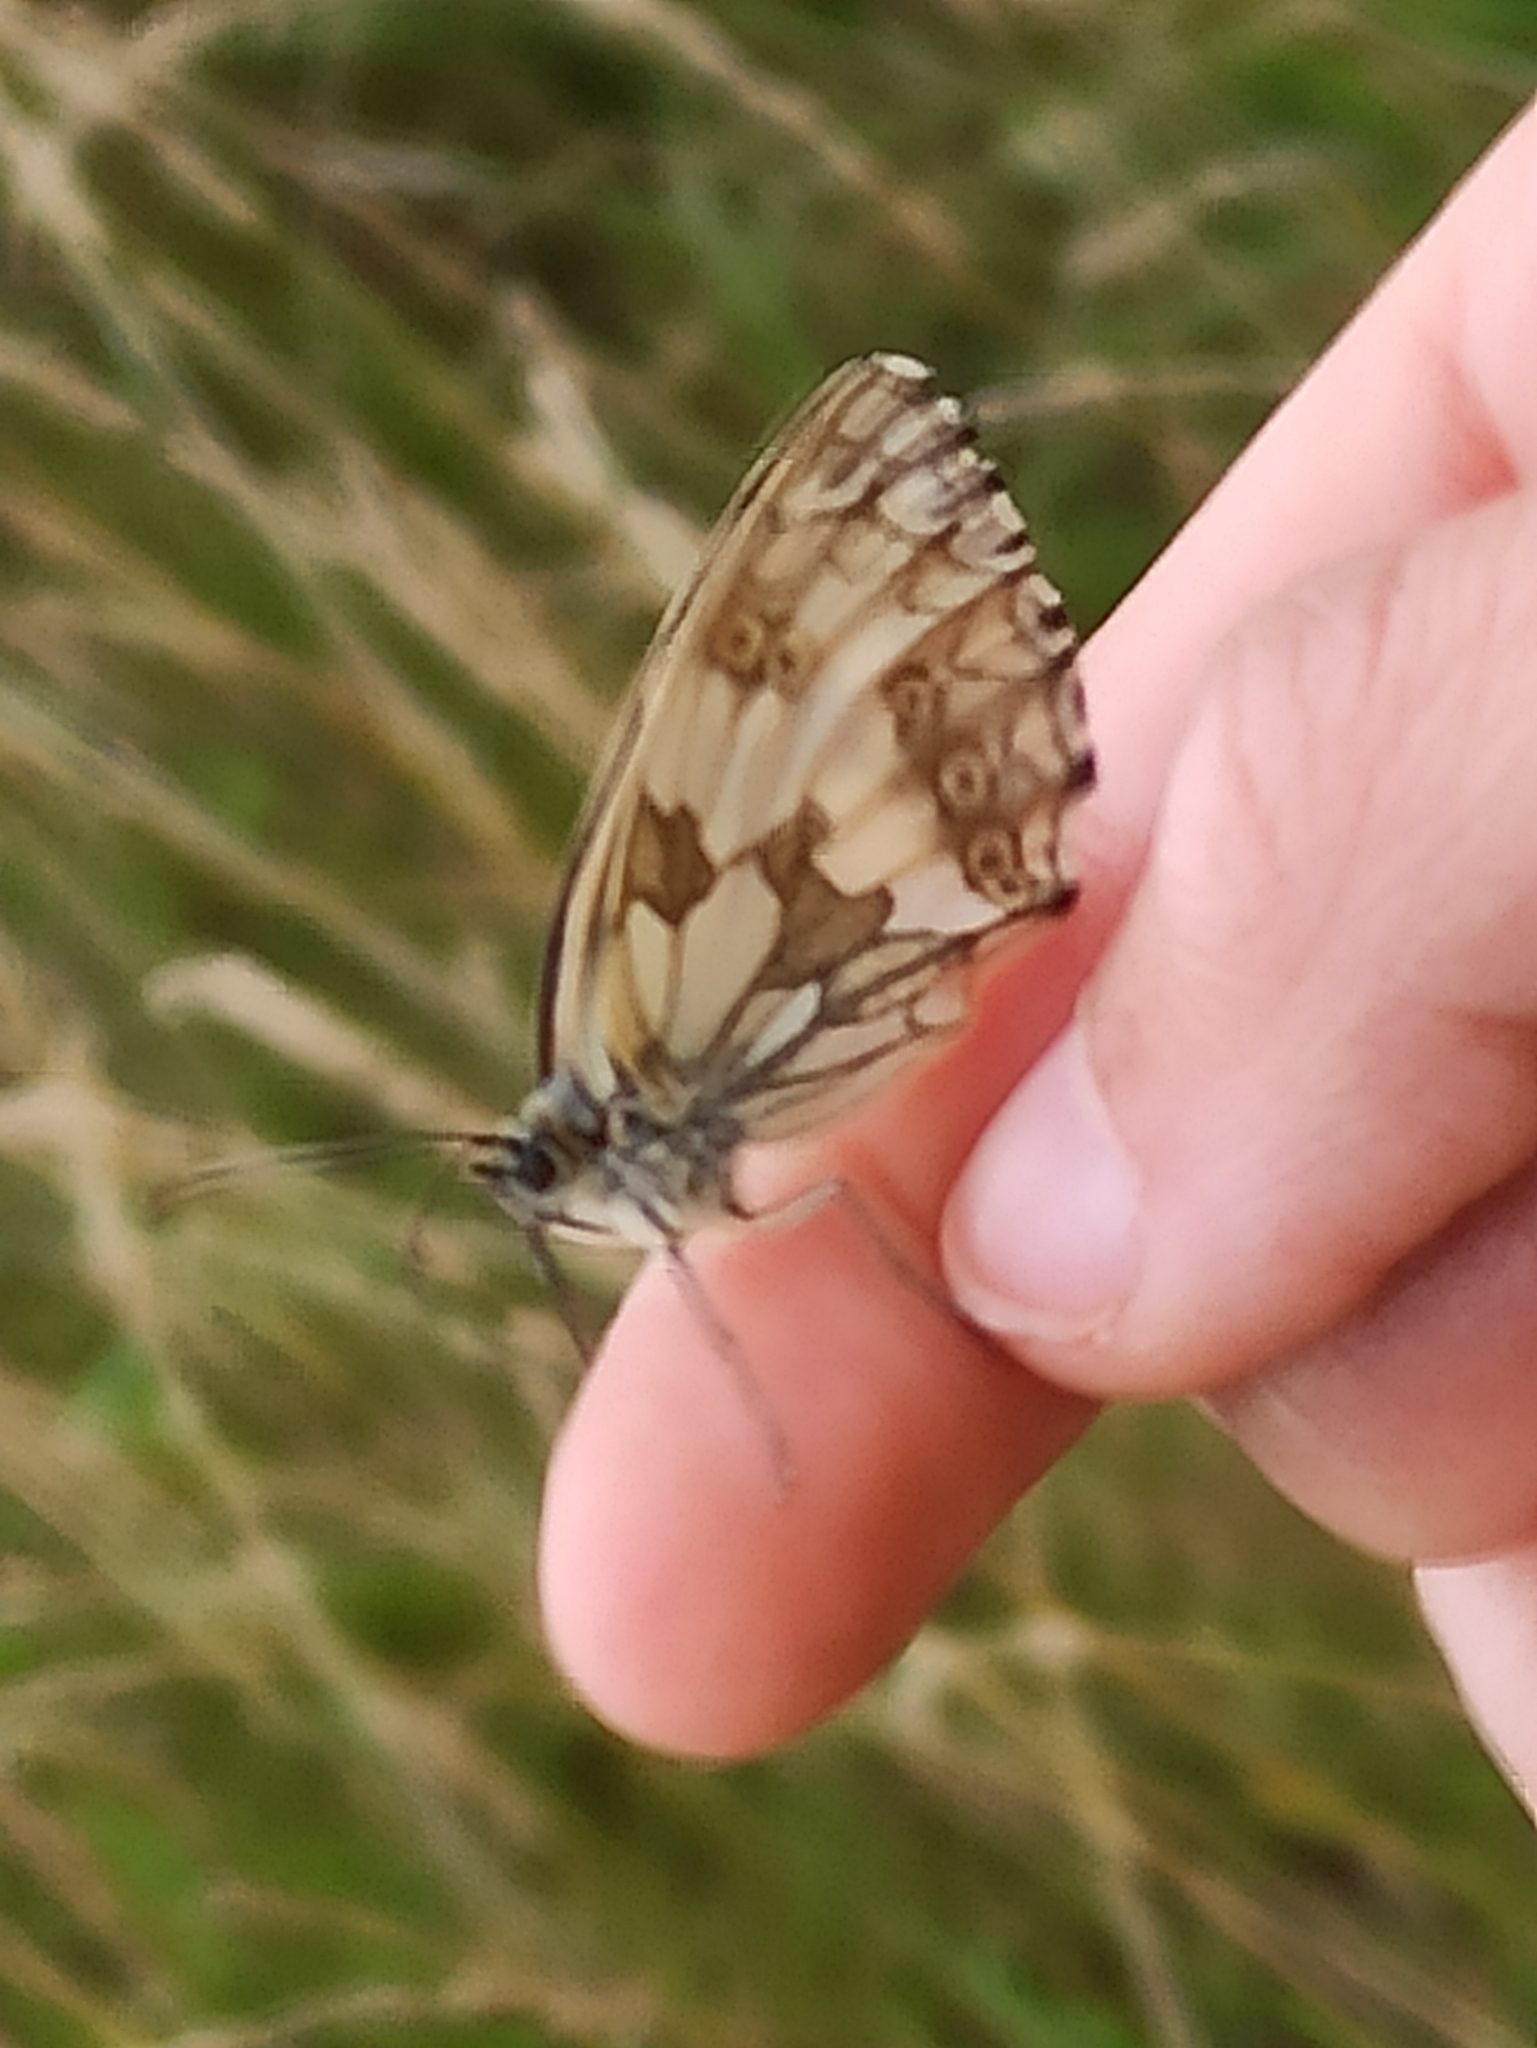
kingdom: Animalia
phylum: Arthropoda
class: Insecta
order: Lepidoptera
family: Nymphalidae
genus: Melanargia
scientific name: Melanargia galathea
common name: Marbled white
